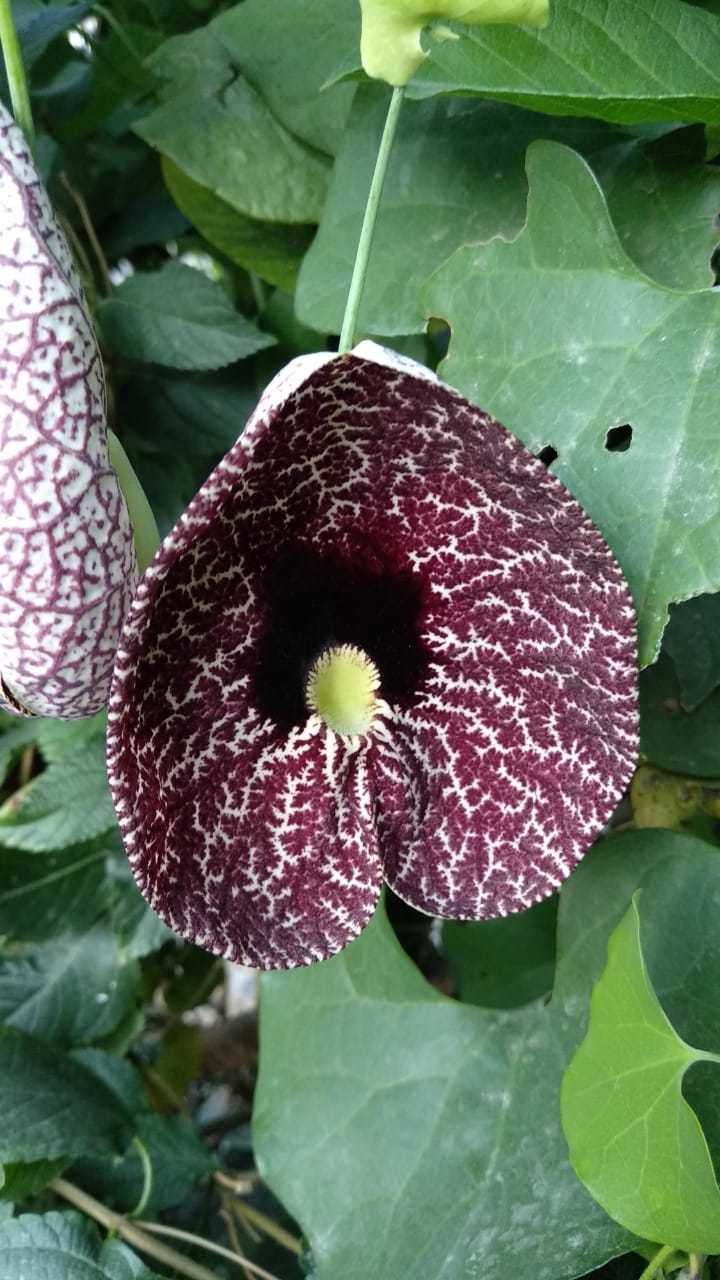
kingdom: Plantae
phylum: Tracheophyta
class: Magnoliopsida
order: Piperales
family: Aristolochiaceae
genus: Aristolochia
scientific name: Aristolochia littoralis
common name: Duck
